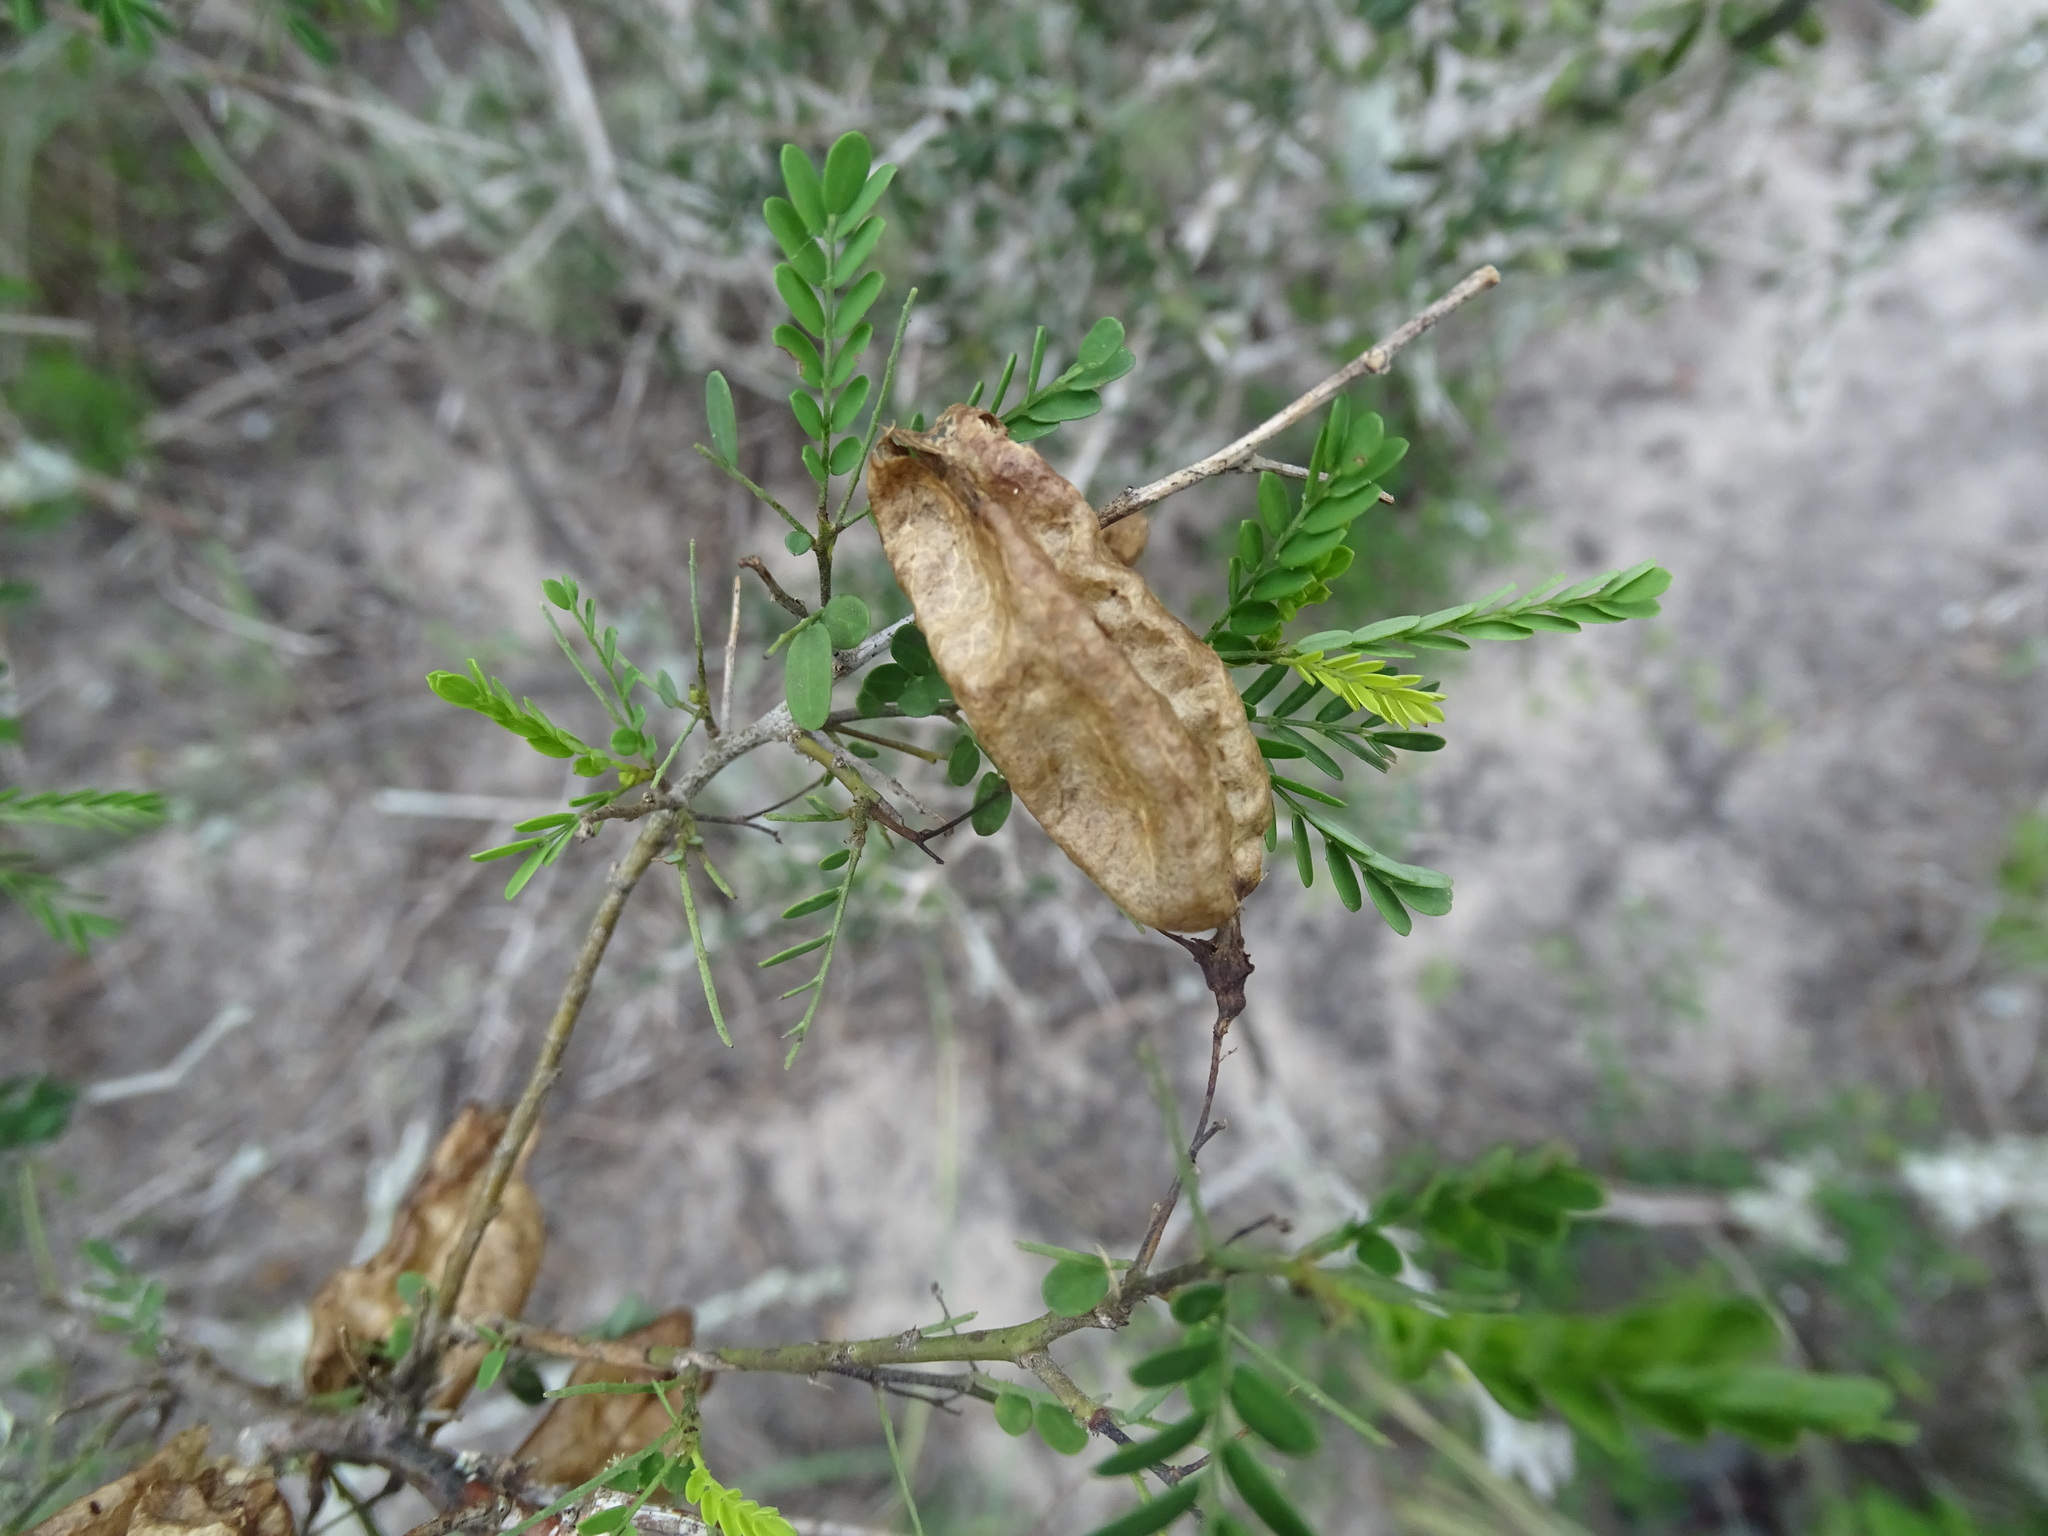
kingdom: Plantae
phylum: Tracheophyta
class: Magnoliopsida
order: Fabales
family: Fabaceae
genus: Diphysa
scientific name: Diphysa microphylla
